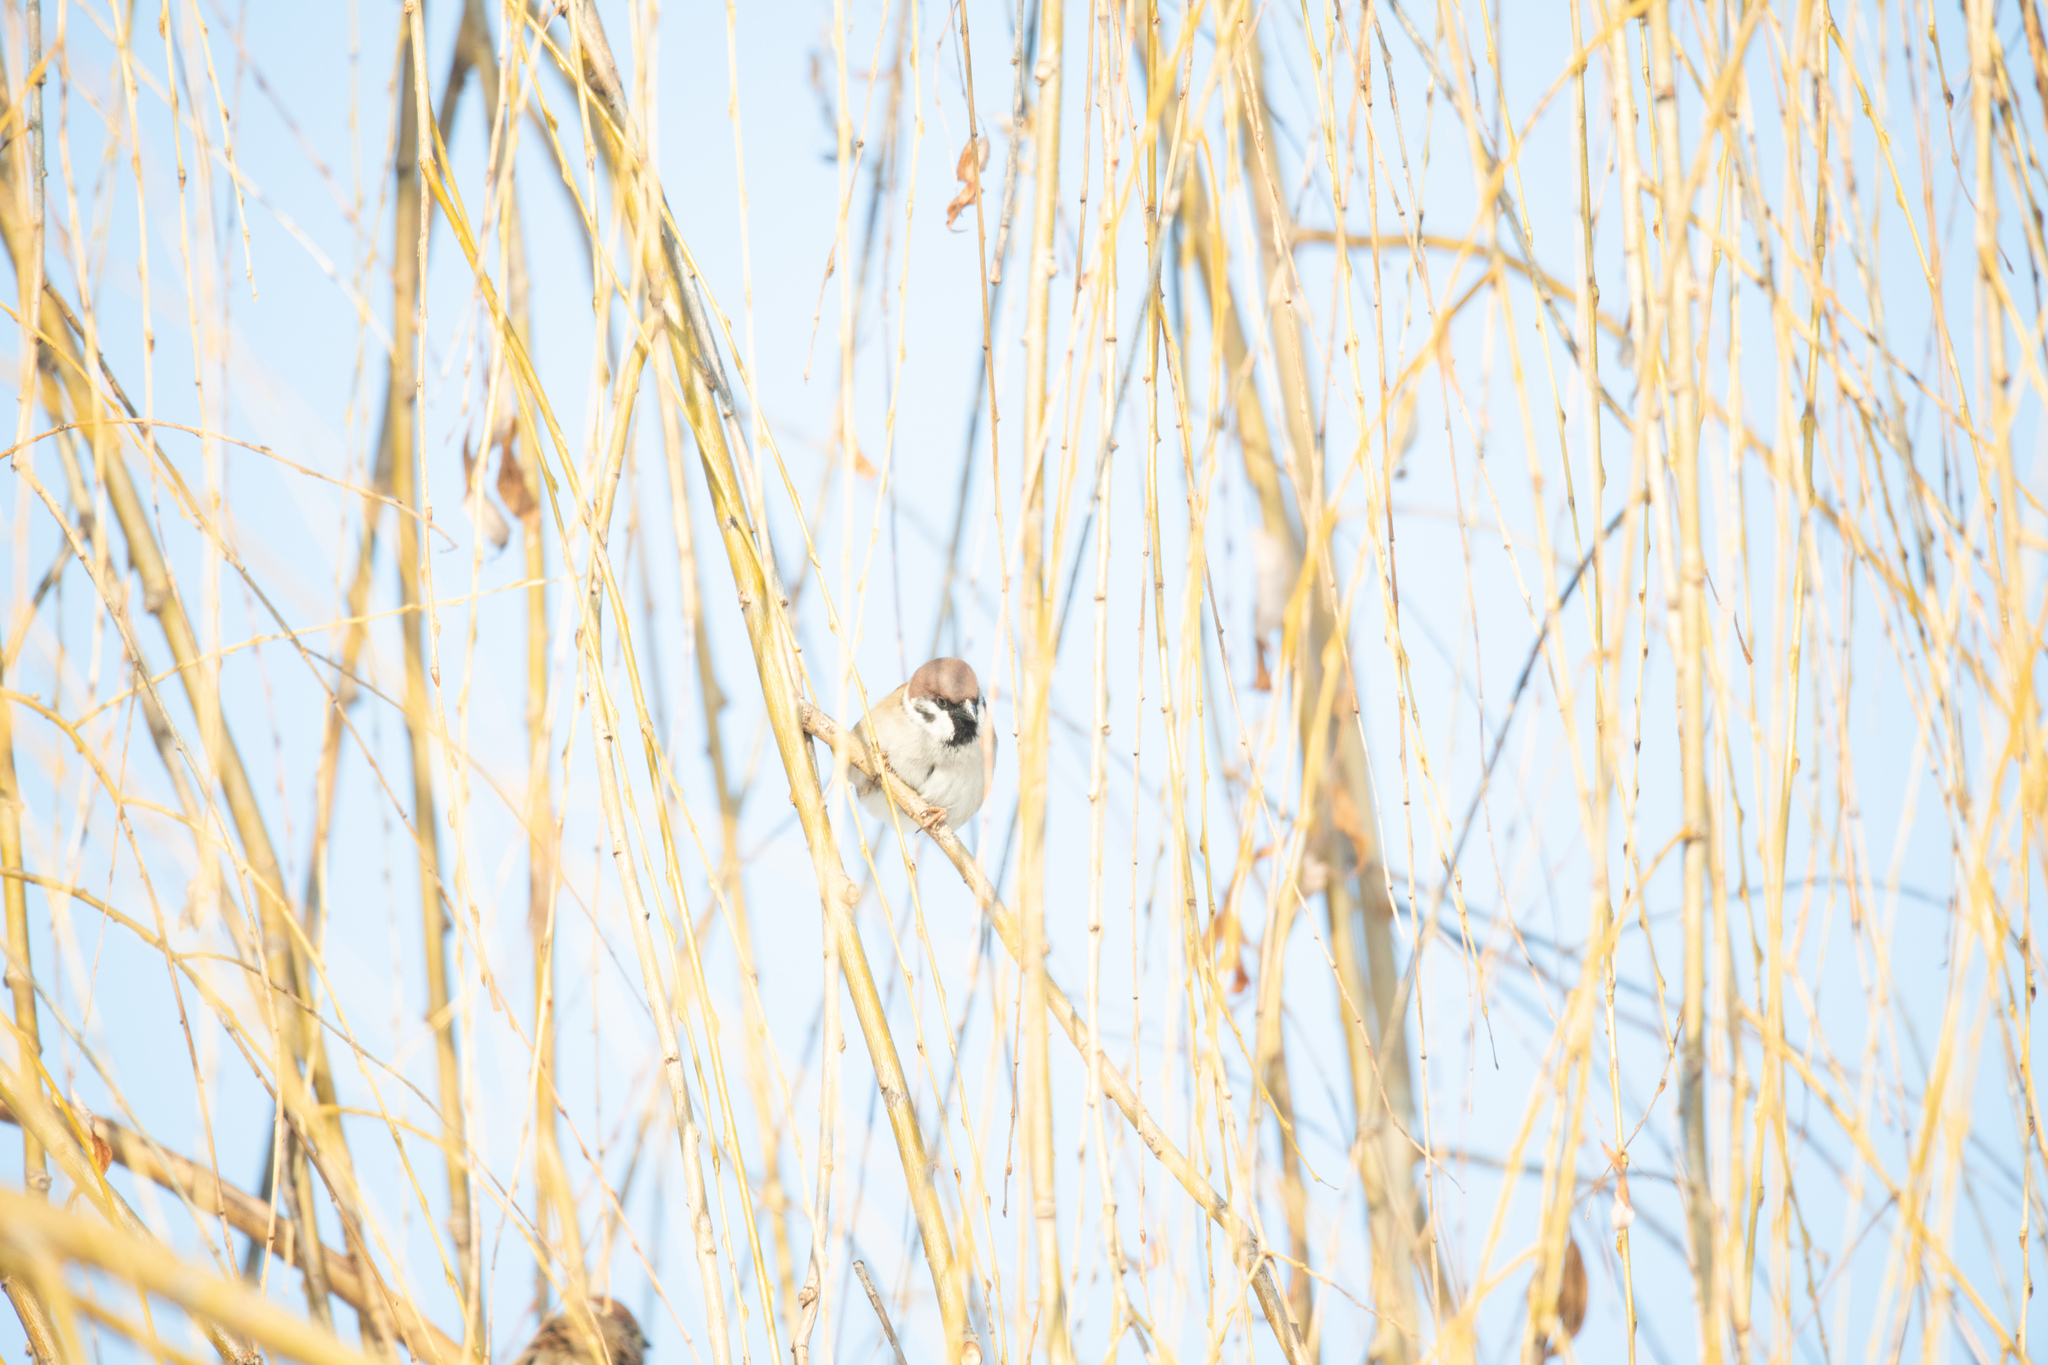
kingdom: Animalia
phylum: Chordata
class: Aves
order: Passeriformes
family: Passeridae
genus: Passer
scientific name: Passer montanus
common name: Eurasian tree sparrow
